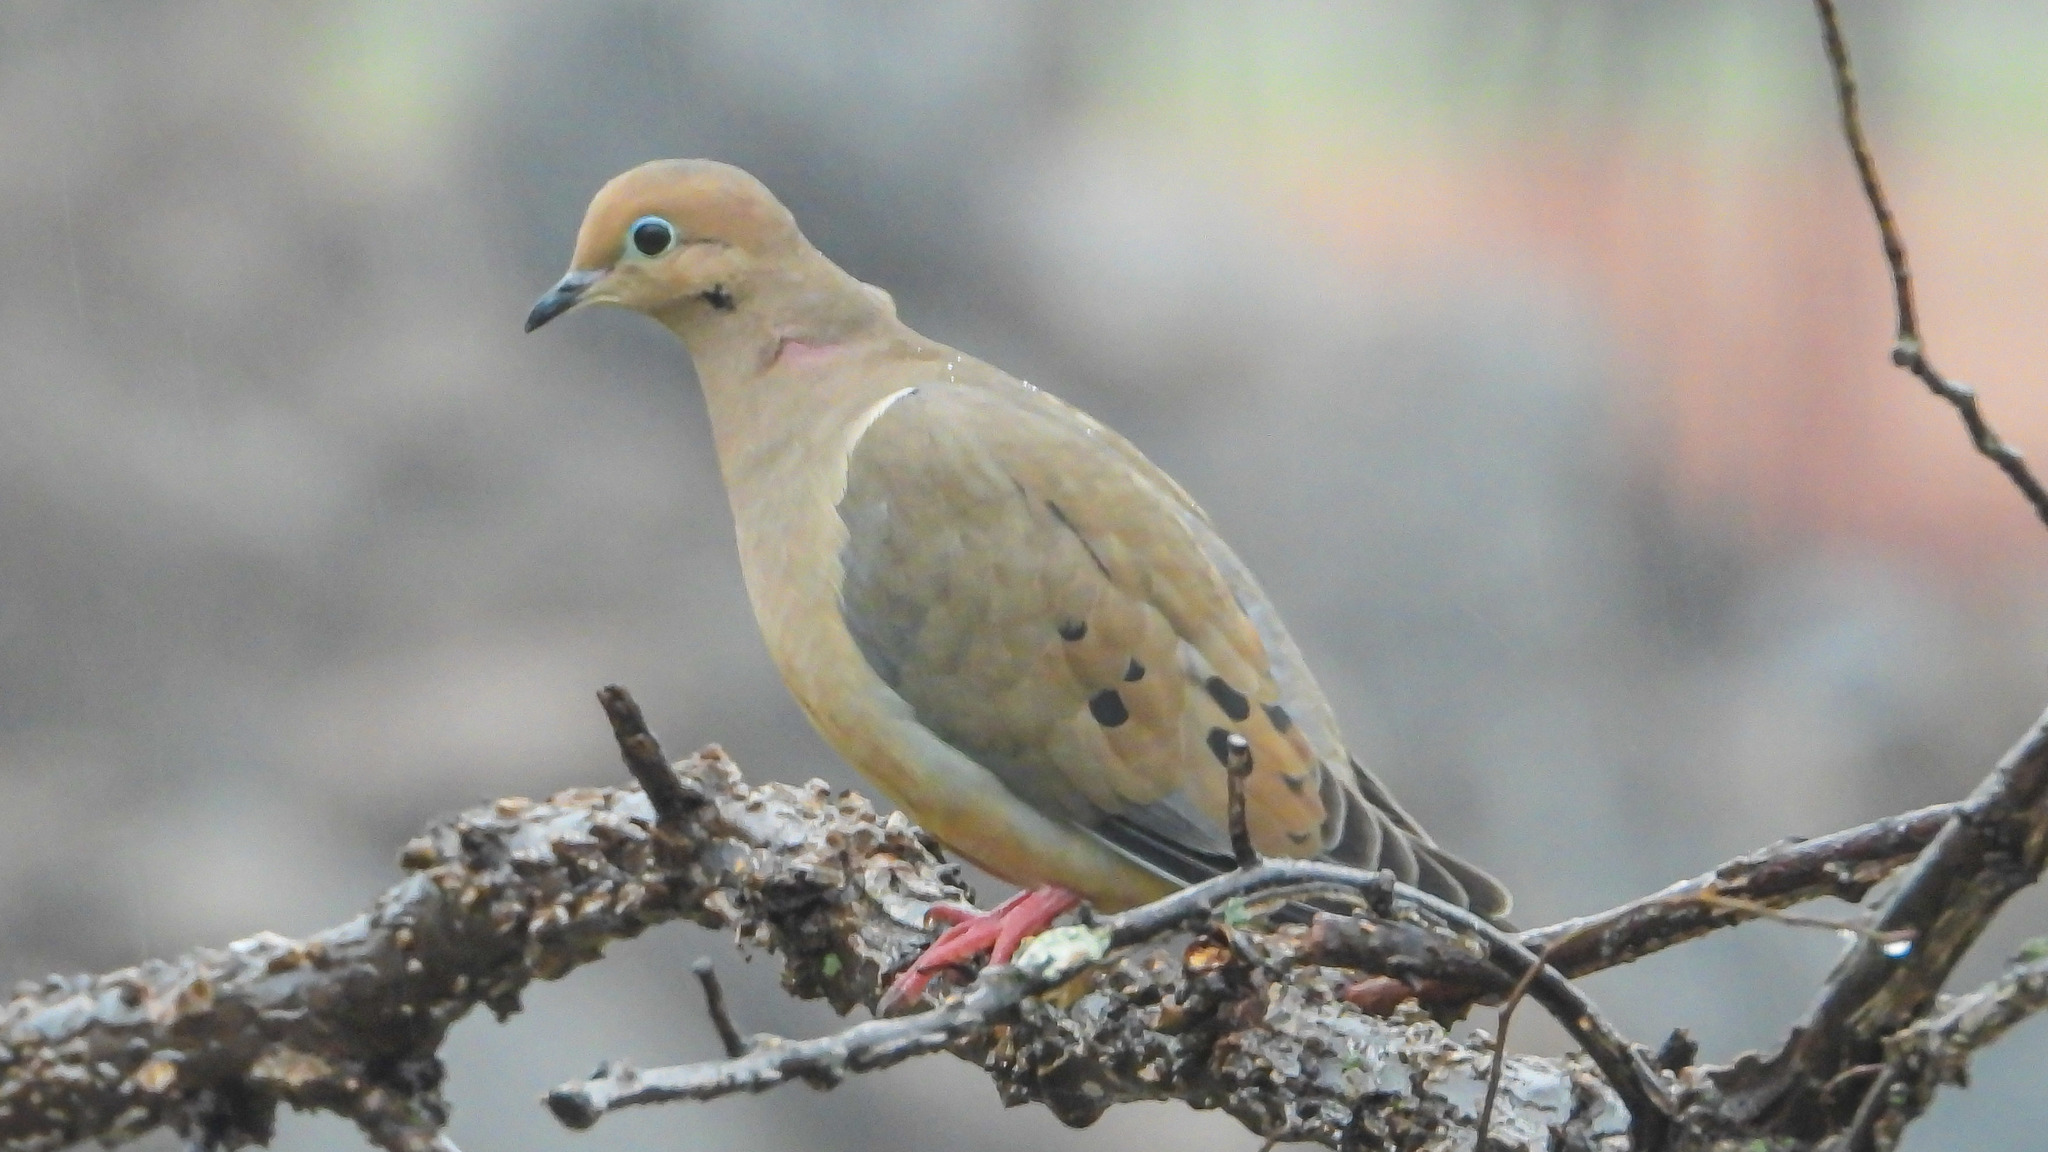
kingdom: Animalia
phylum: Chordata
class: Aves
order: Columbiformes
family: Columbidae
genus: Zenaida
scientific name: Zenaida macroura
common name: Mourning dove
